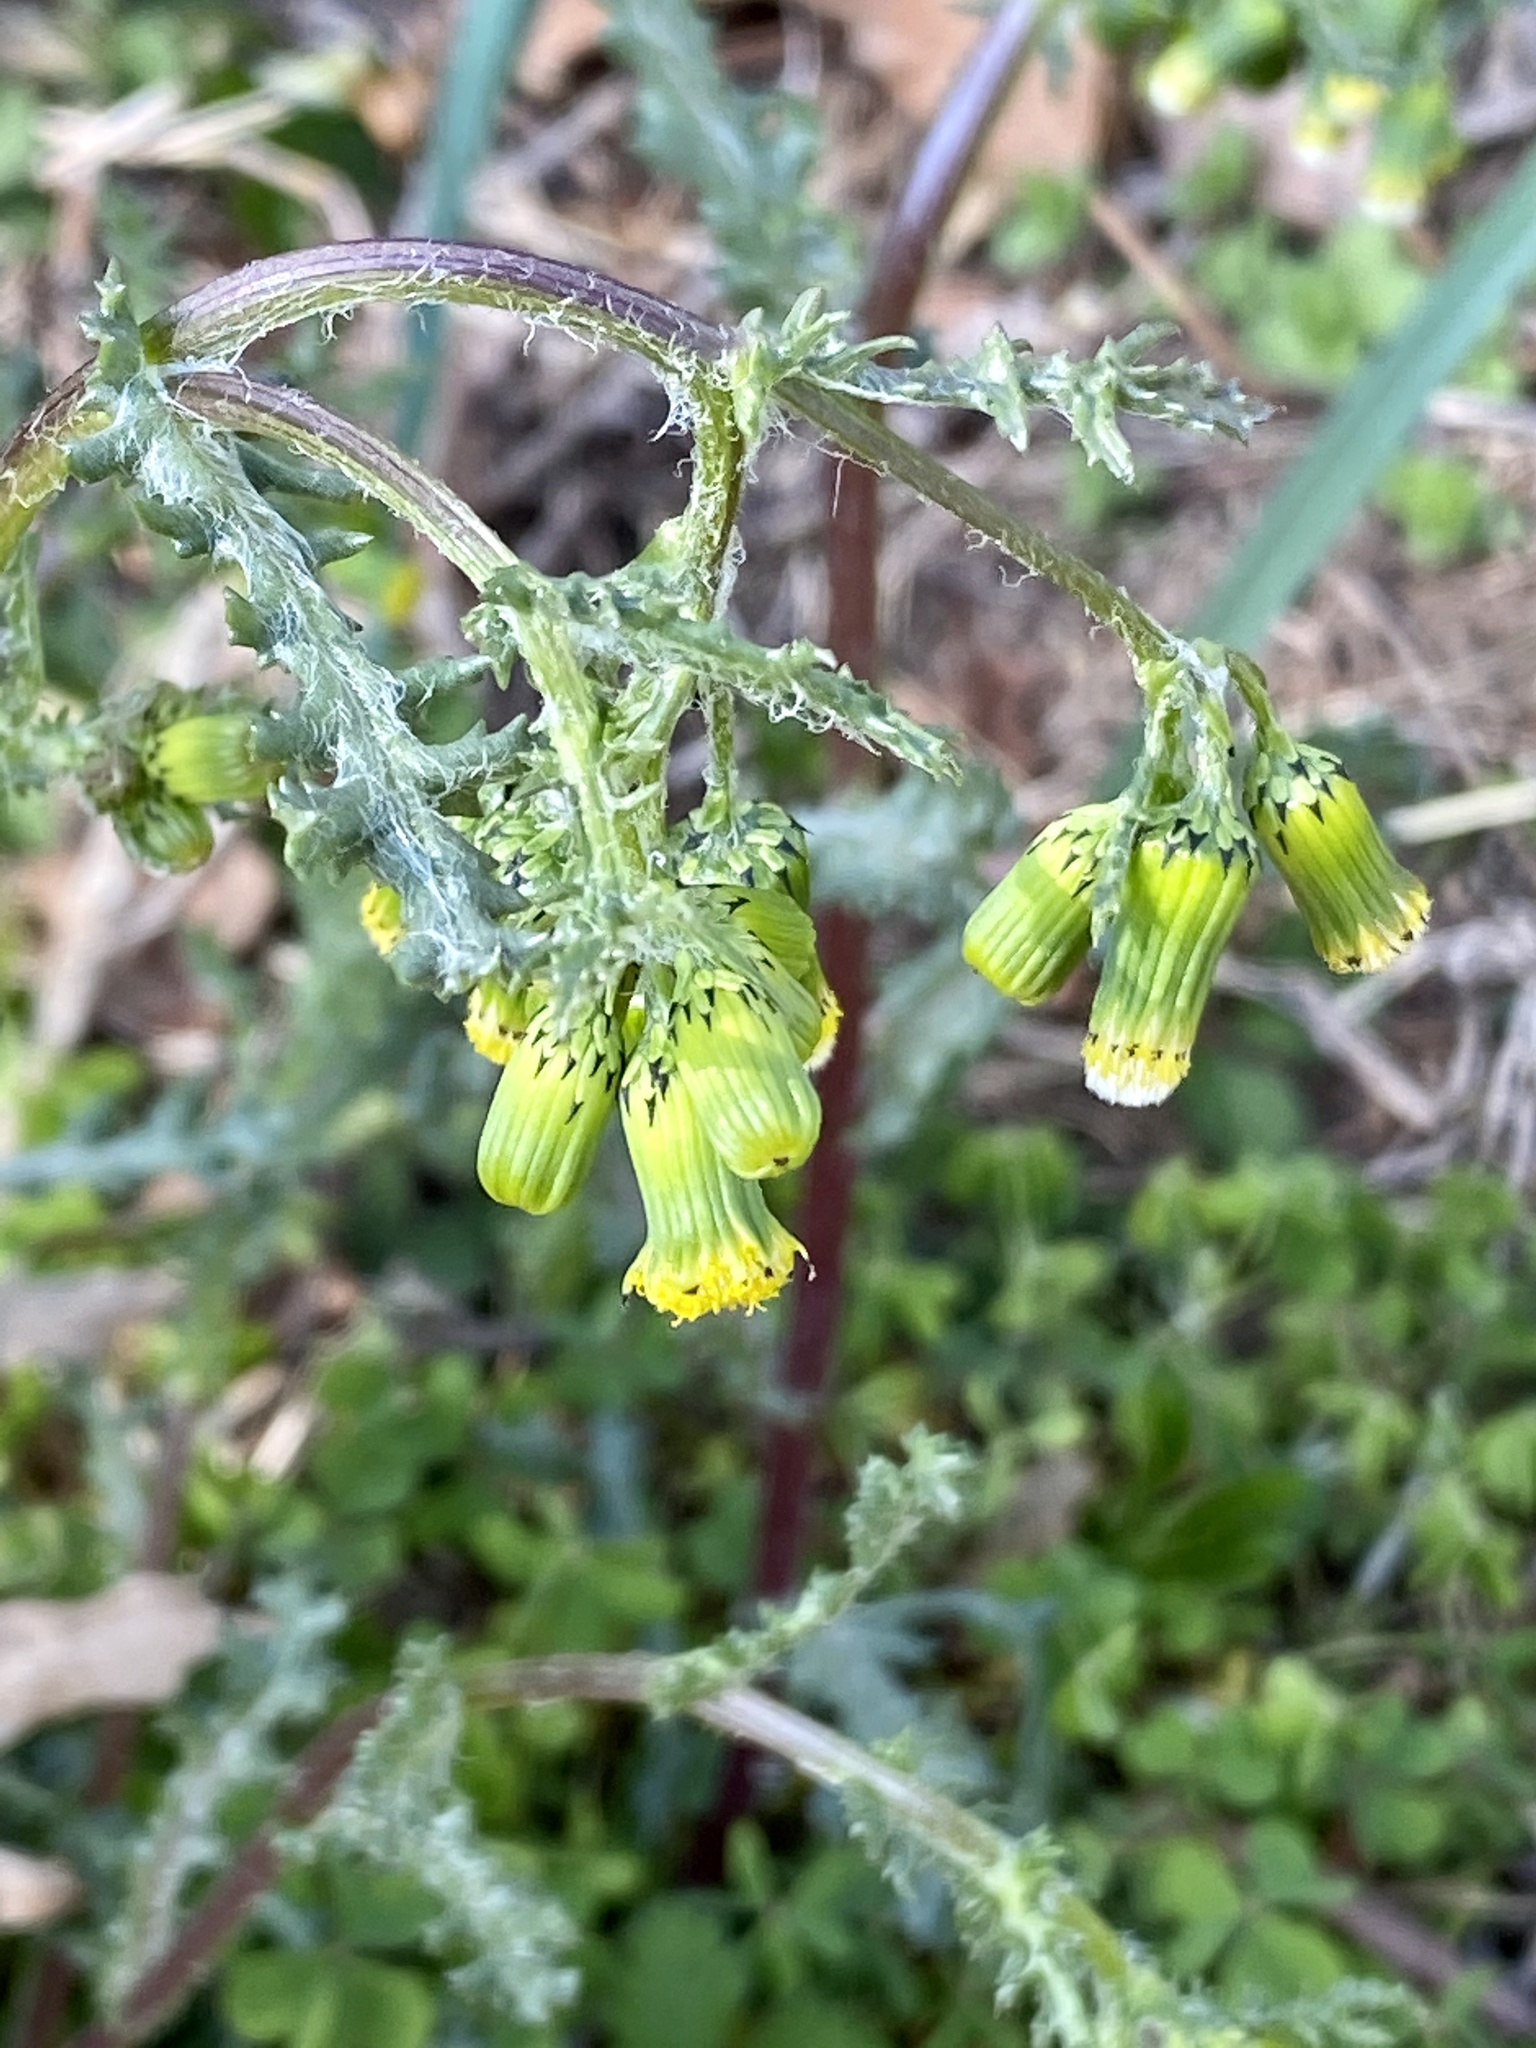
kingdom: Plantae
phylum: Tracheophyta
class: Magnoliopsida
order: Asterales
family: Asteraceae
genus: Senecio
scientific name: Senecio vulgaris
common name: Old-man-in-the-spring
